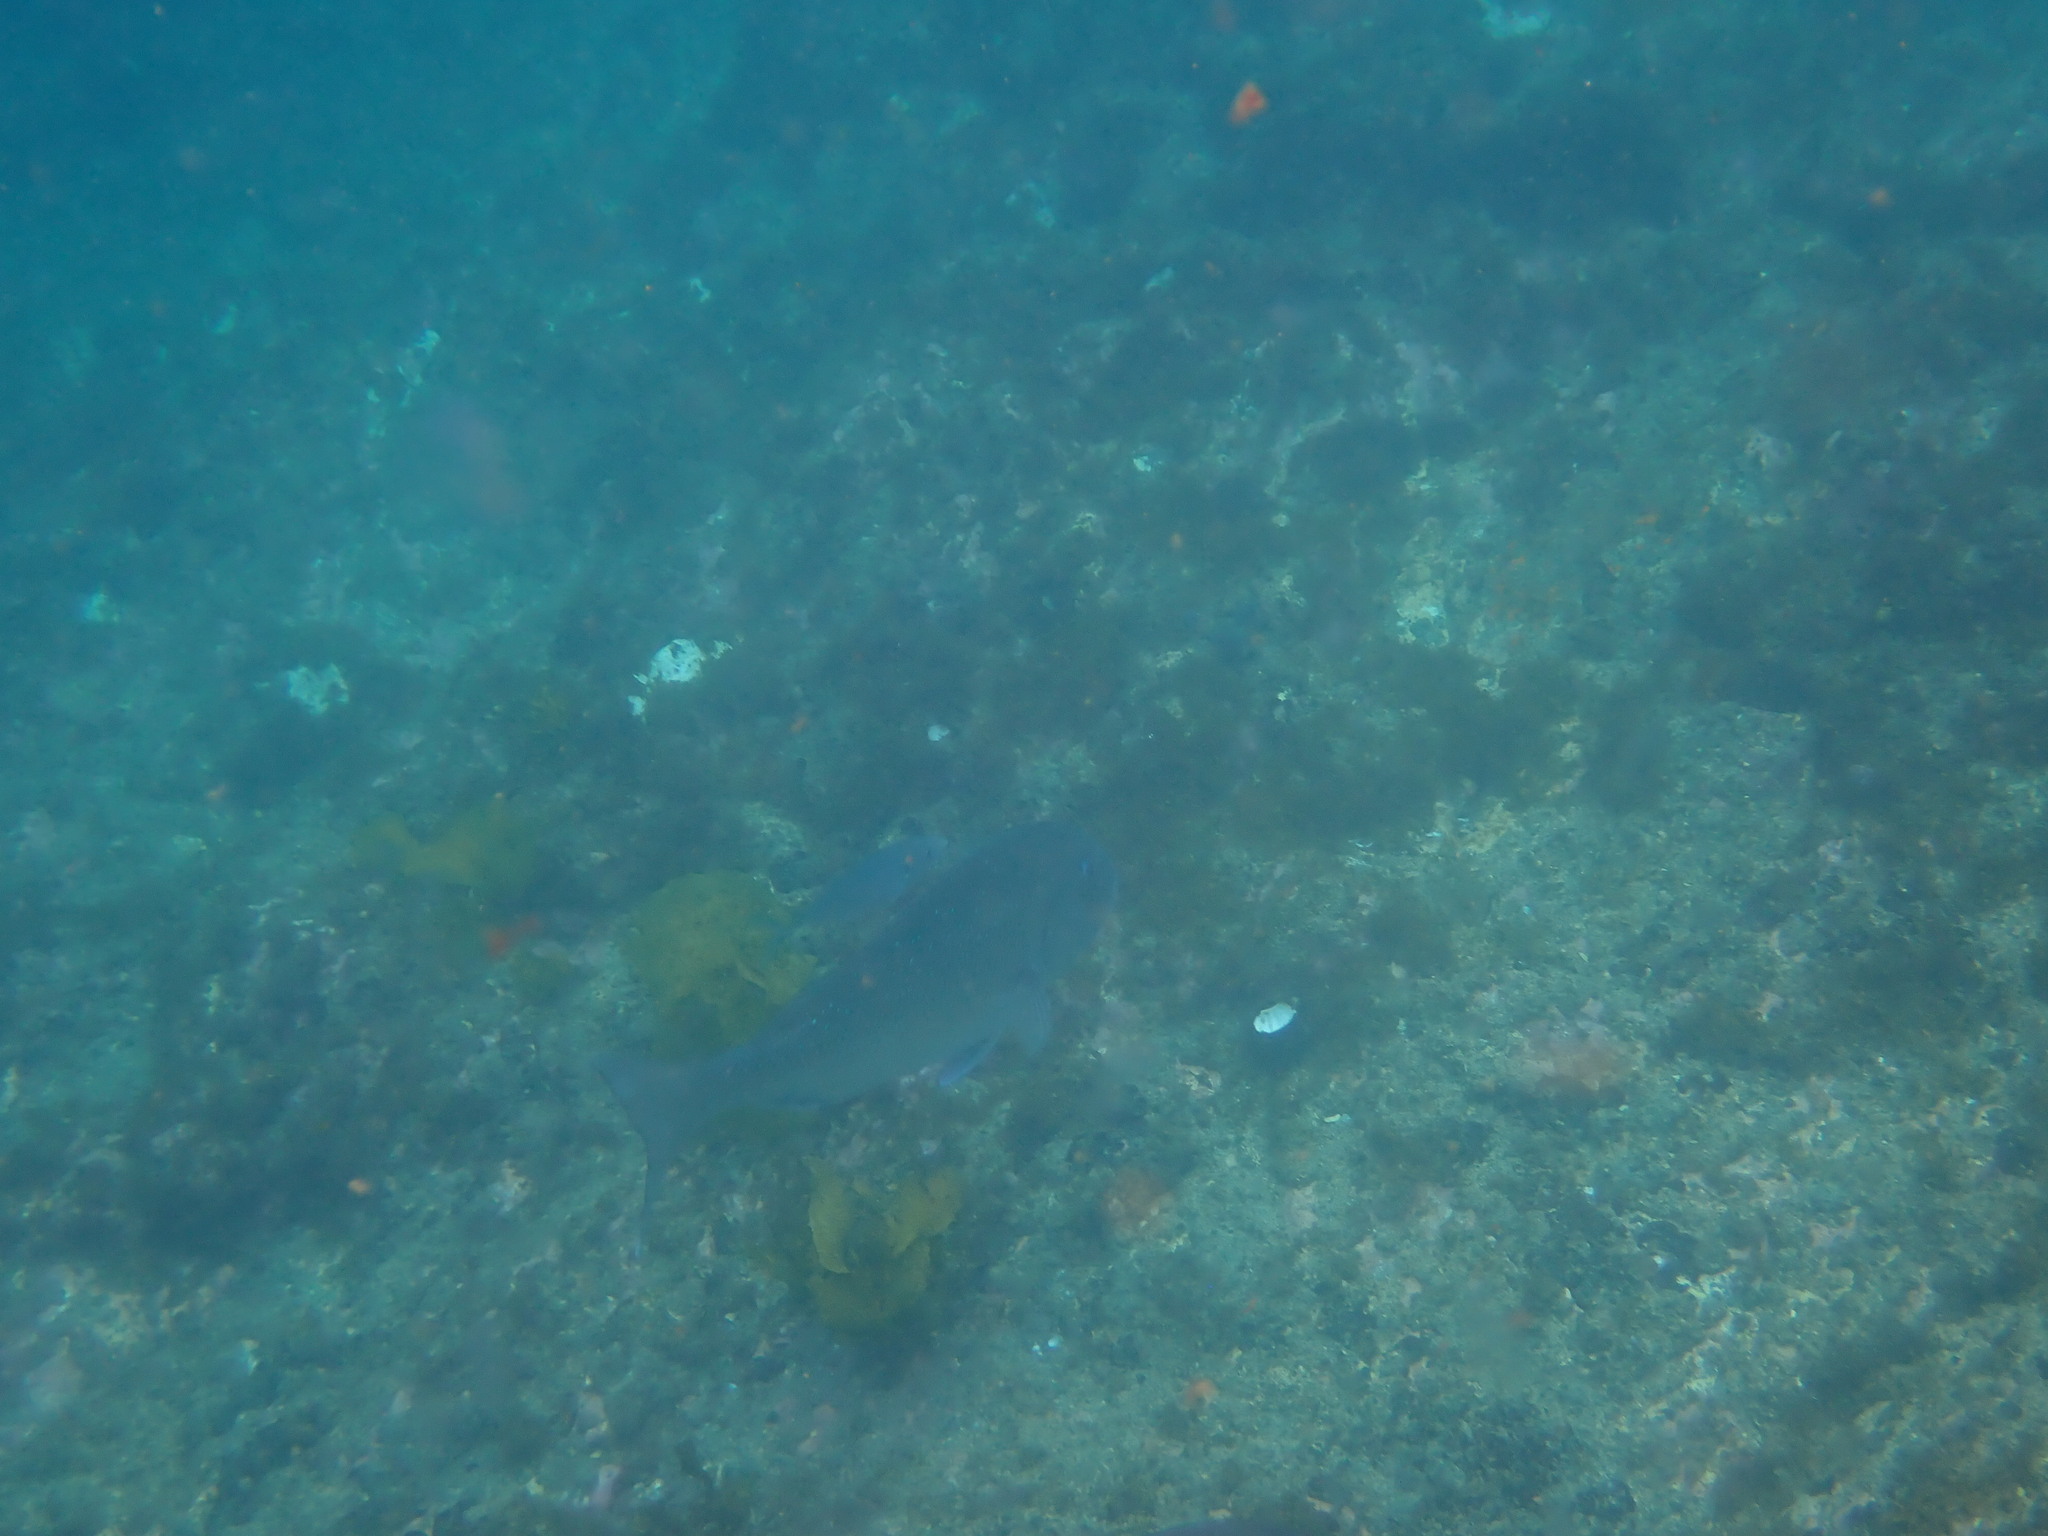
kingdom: Animalia
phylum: Chordata
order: Perciformes
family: Sparidae
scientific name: Sparidae
